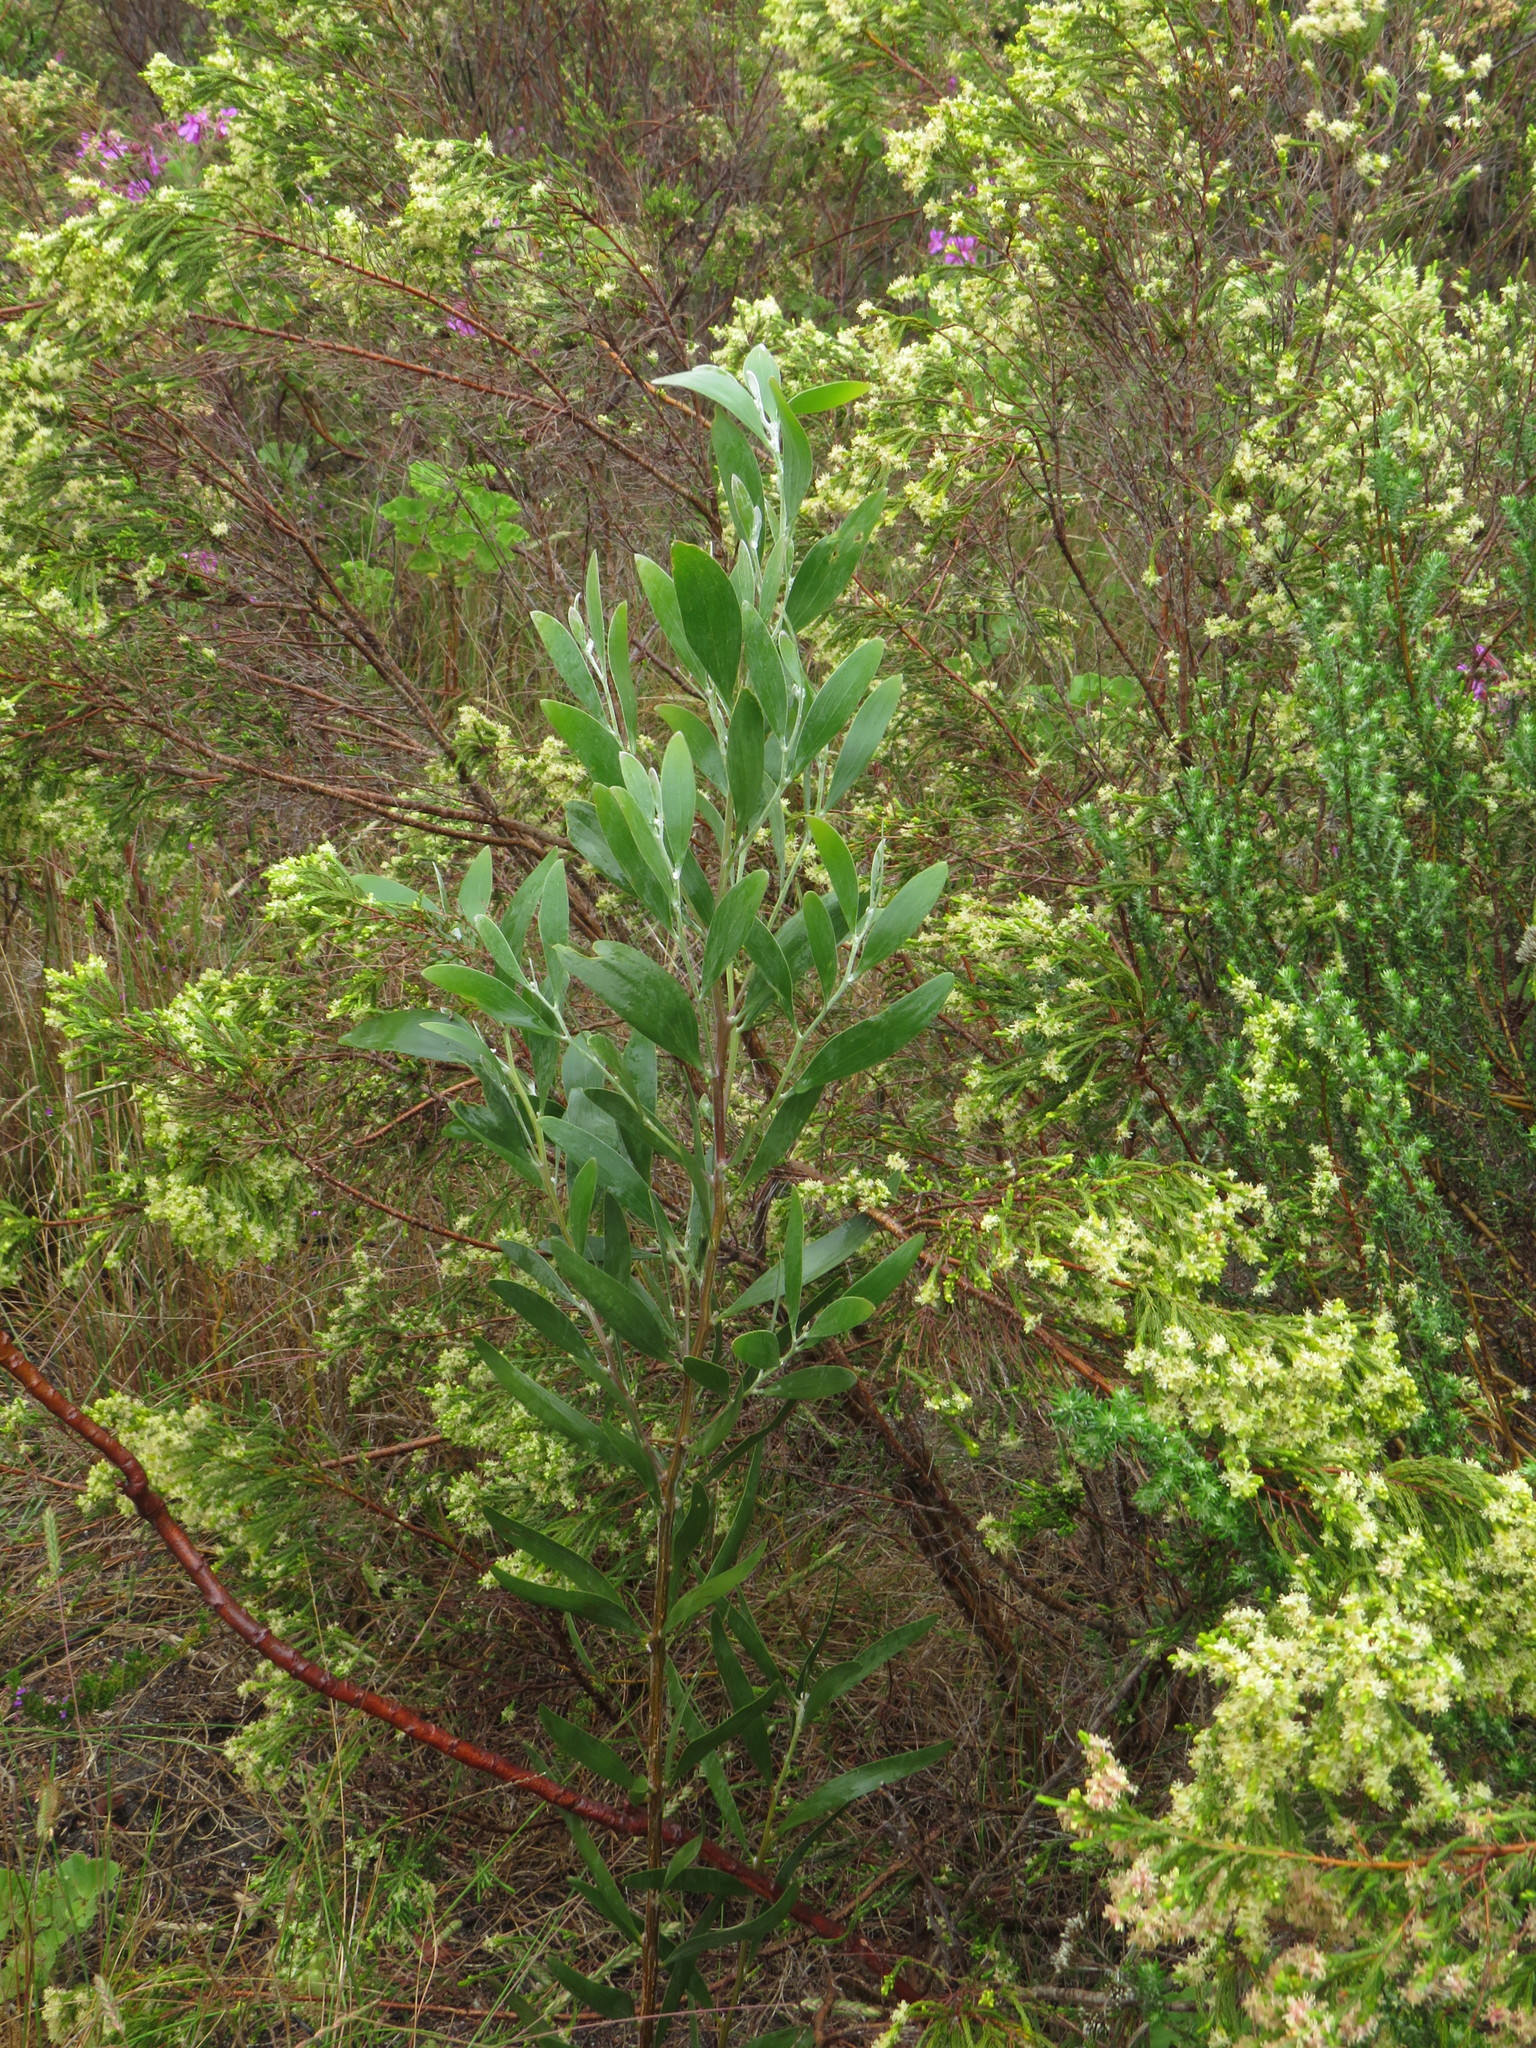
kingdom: Plantae
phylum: Tracheophyta
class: Magnoliopsida
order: Fabales
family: Fabaceae
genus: Acacia
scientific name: Acacia melanoxylon
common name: Blackwood
